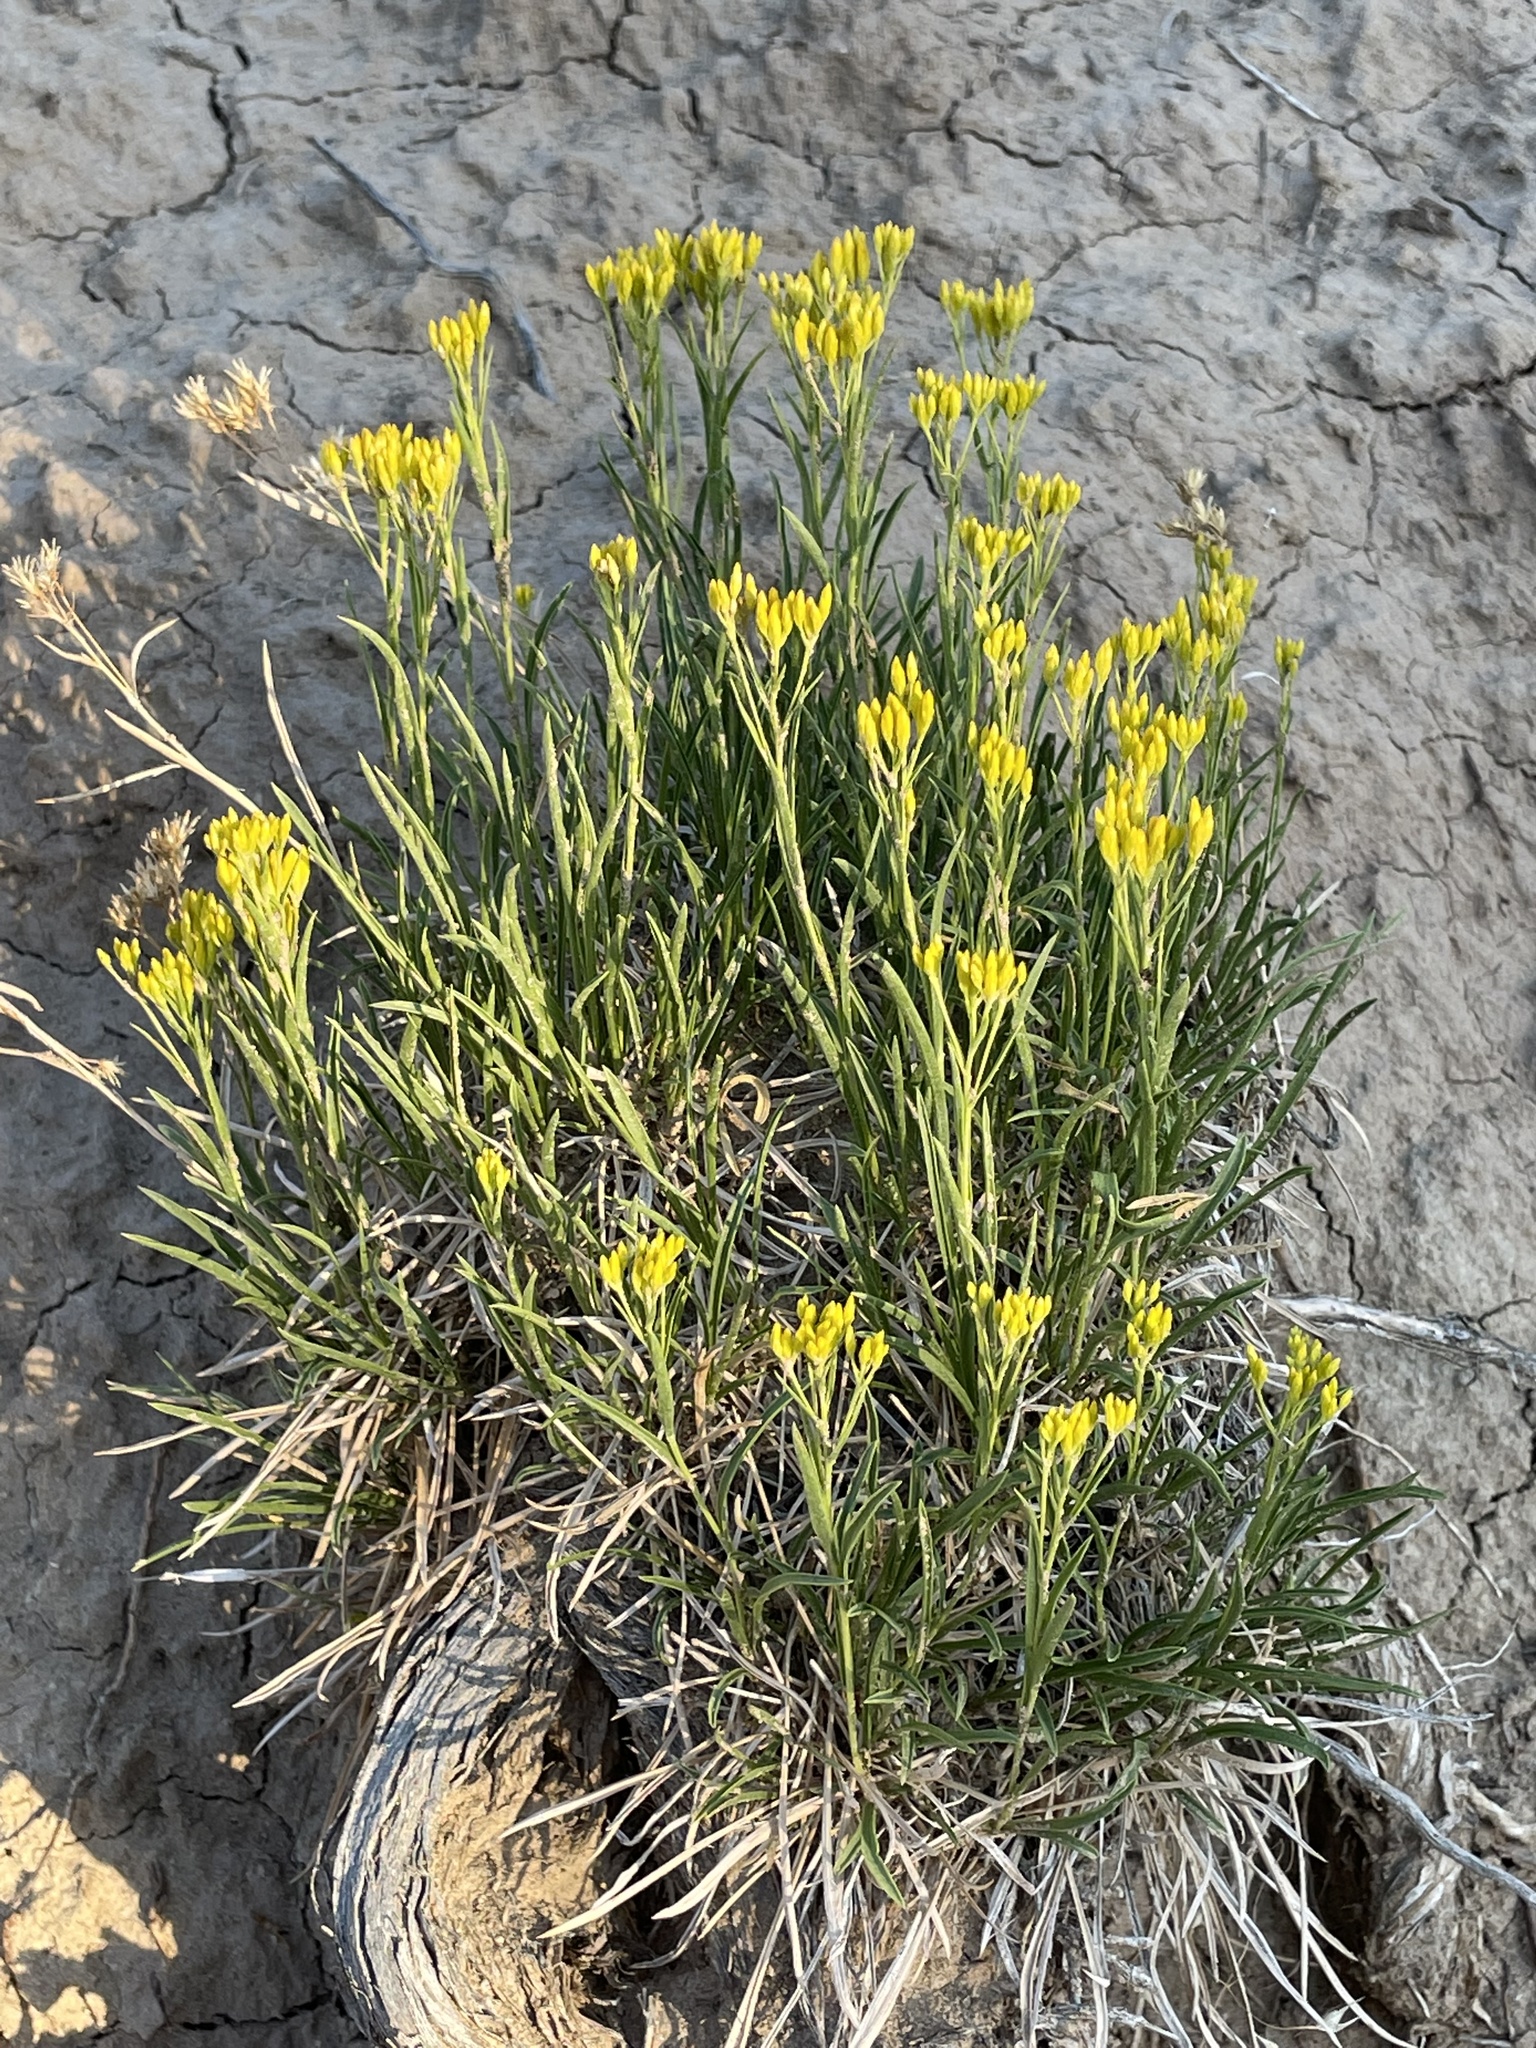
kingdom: Plantae
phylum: Tracheophyta
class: Magnoliopsida
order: Asterales
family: Asteraceae
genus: Petradoria
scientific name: Petradoria pumila
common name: Rock-goldenrod
